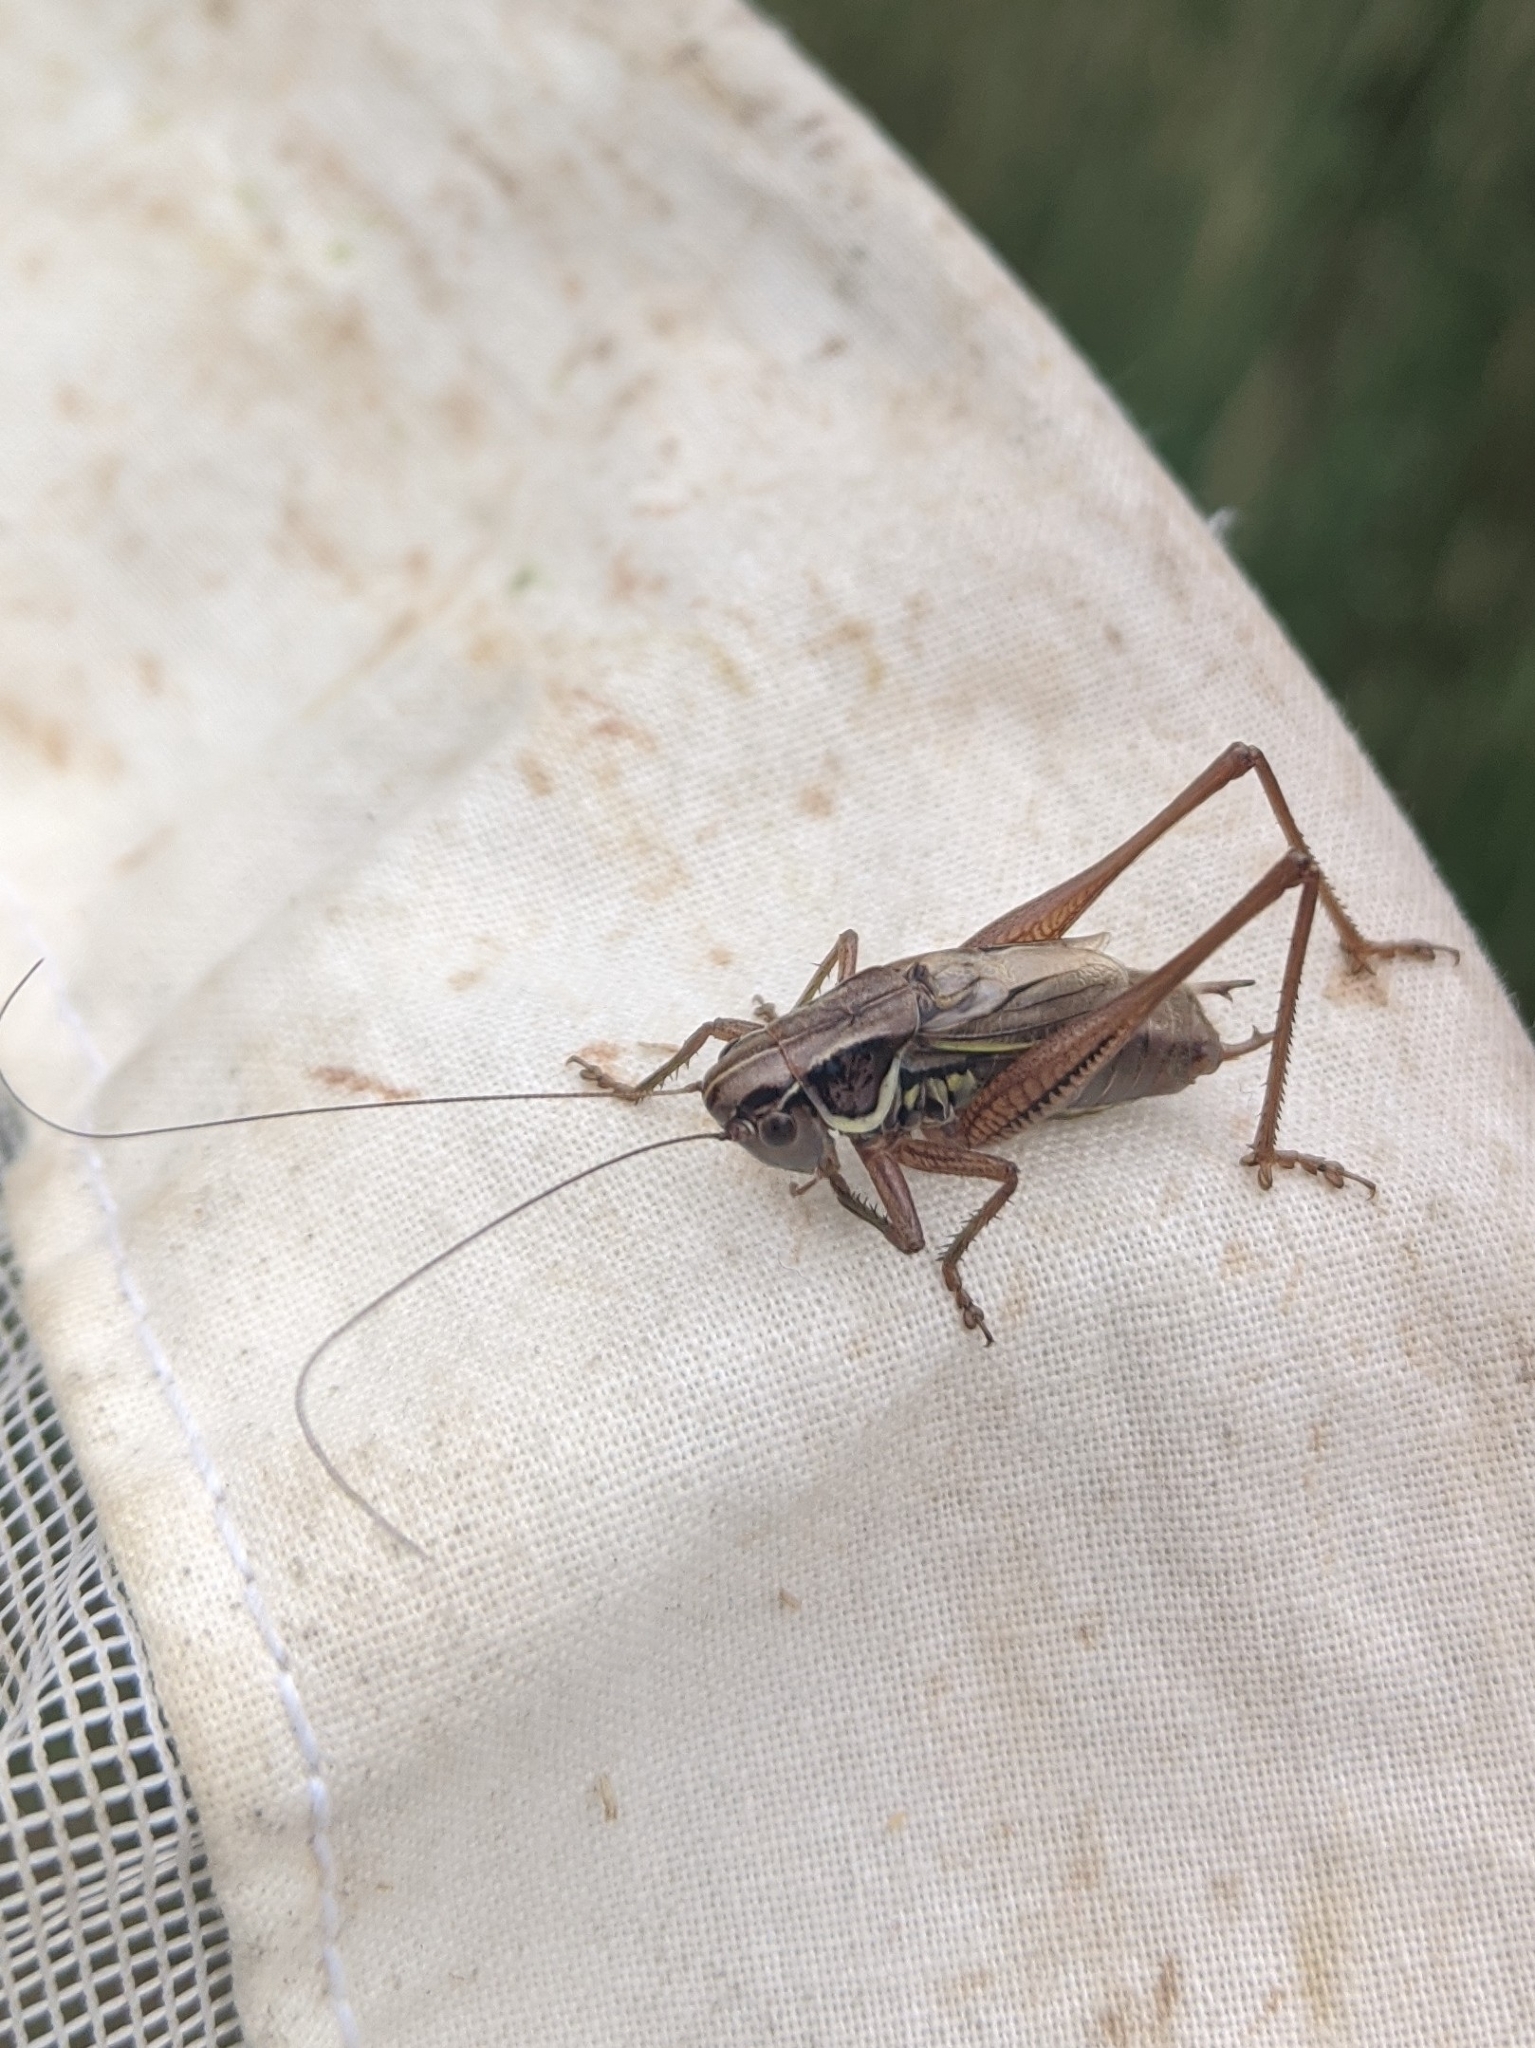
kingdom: Animalia
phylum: Arthropoda
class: Insecta
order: Orthoptera
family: Tettigoniidae
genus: Roeseliana
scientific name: Roeseliana roeselii
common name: Roesel's bush cricket
